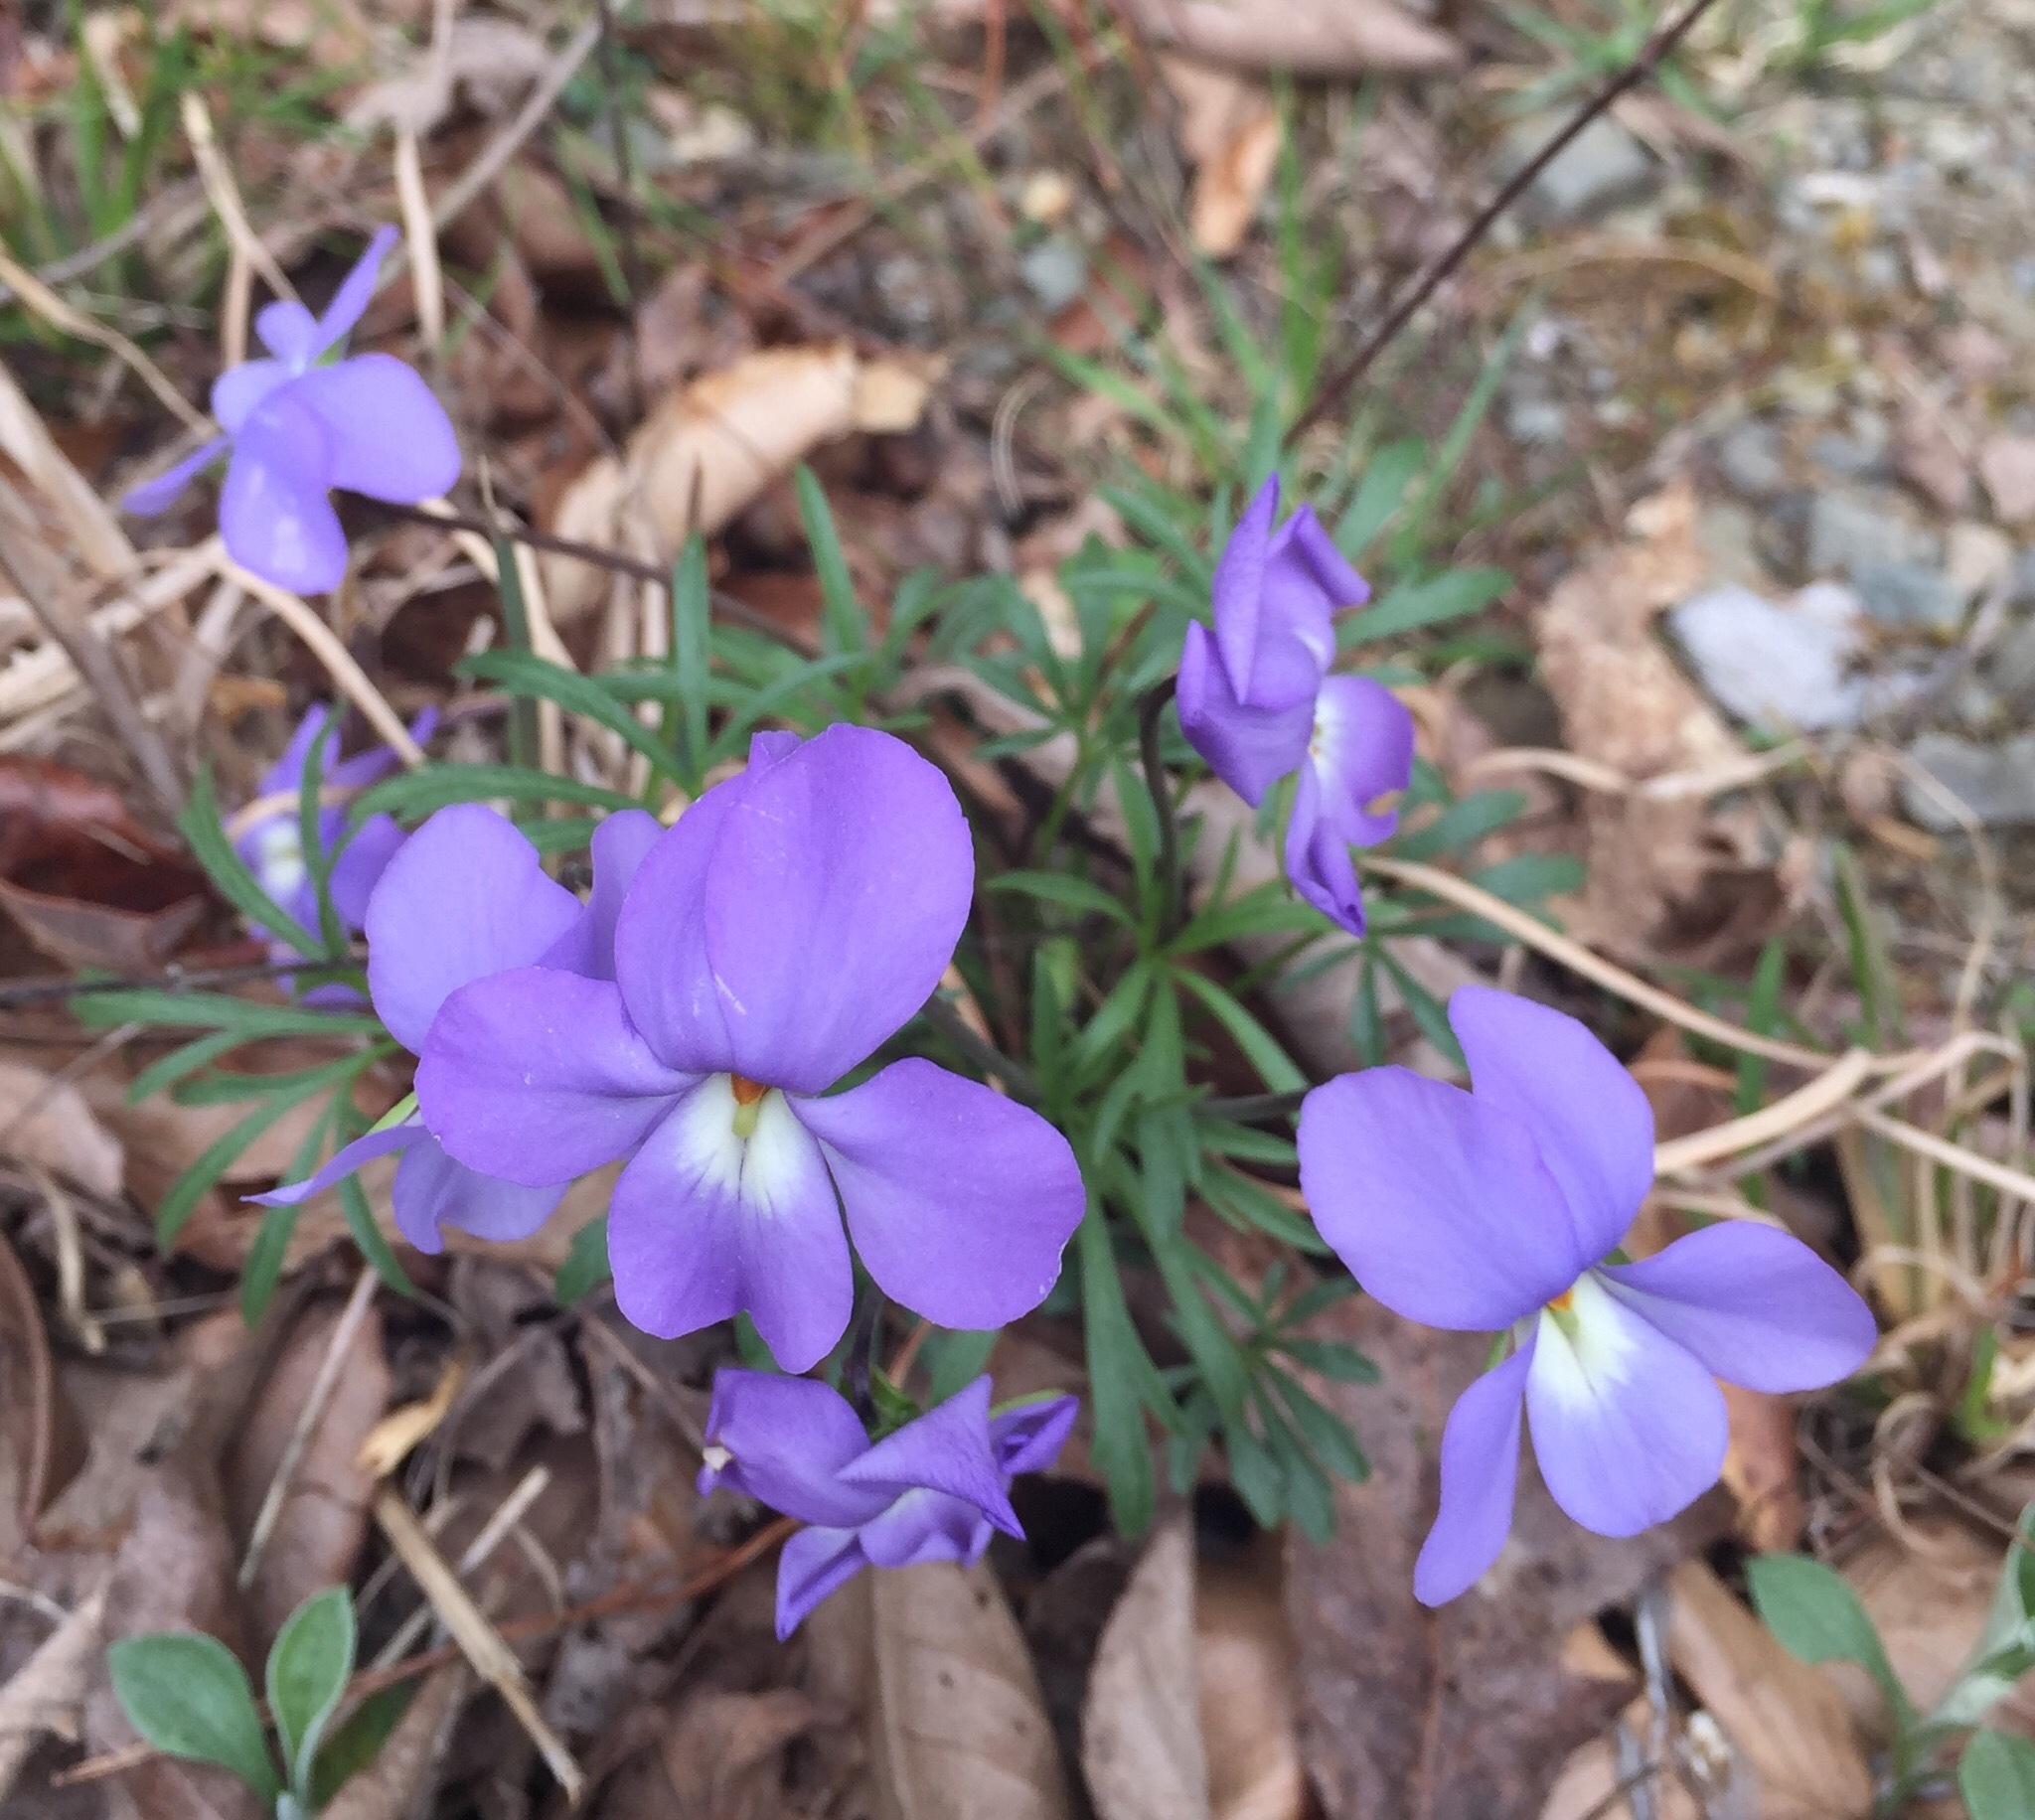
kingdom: Plantae
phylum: Tracheophyta
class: Magnoliopsida
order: Malpighiales
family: Violaceae
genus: Viola
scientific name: Viola pedata
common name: Pansy violet
